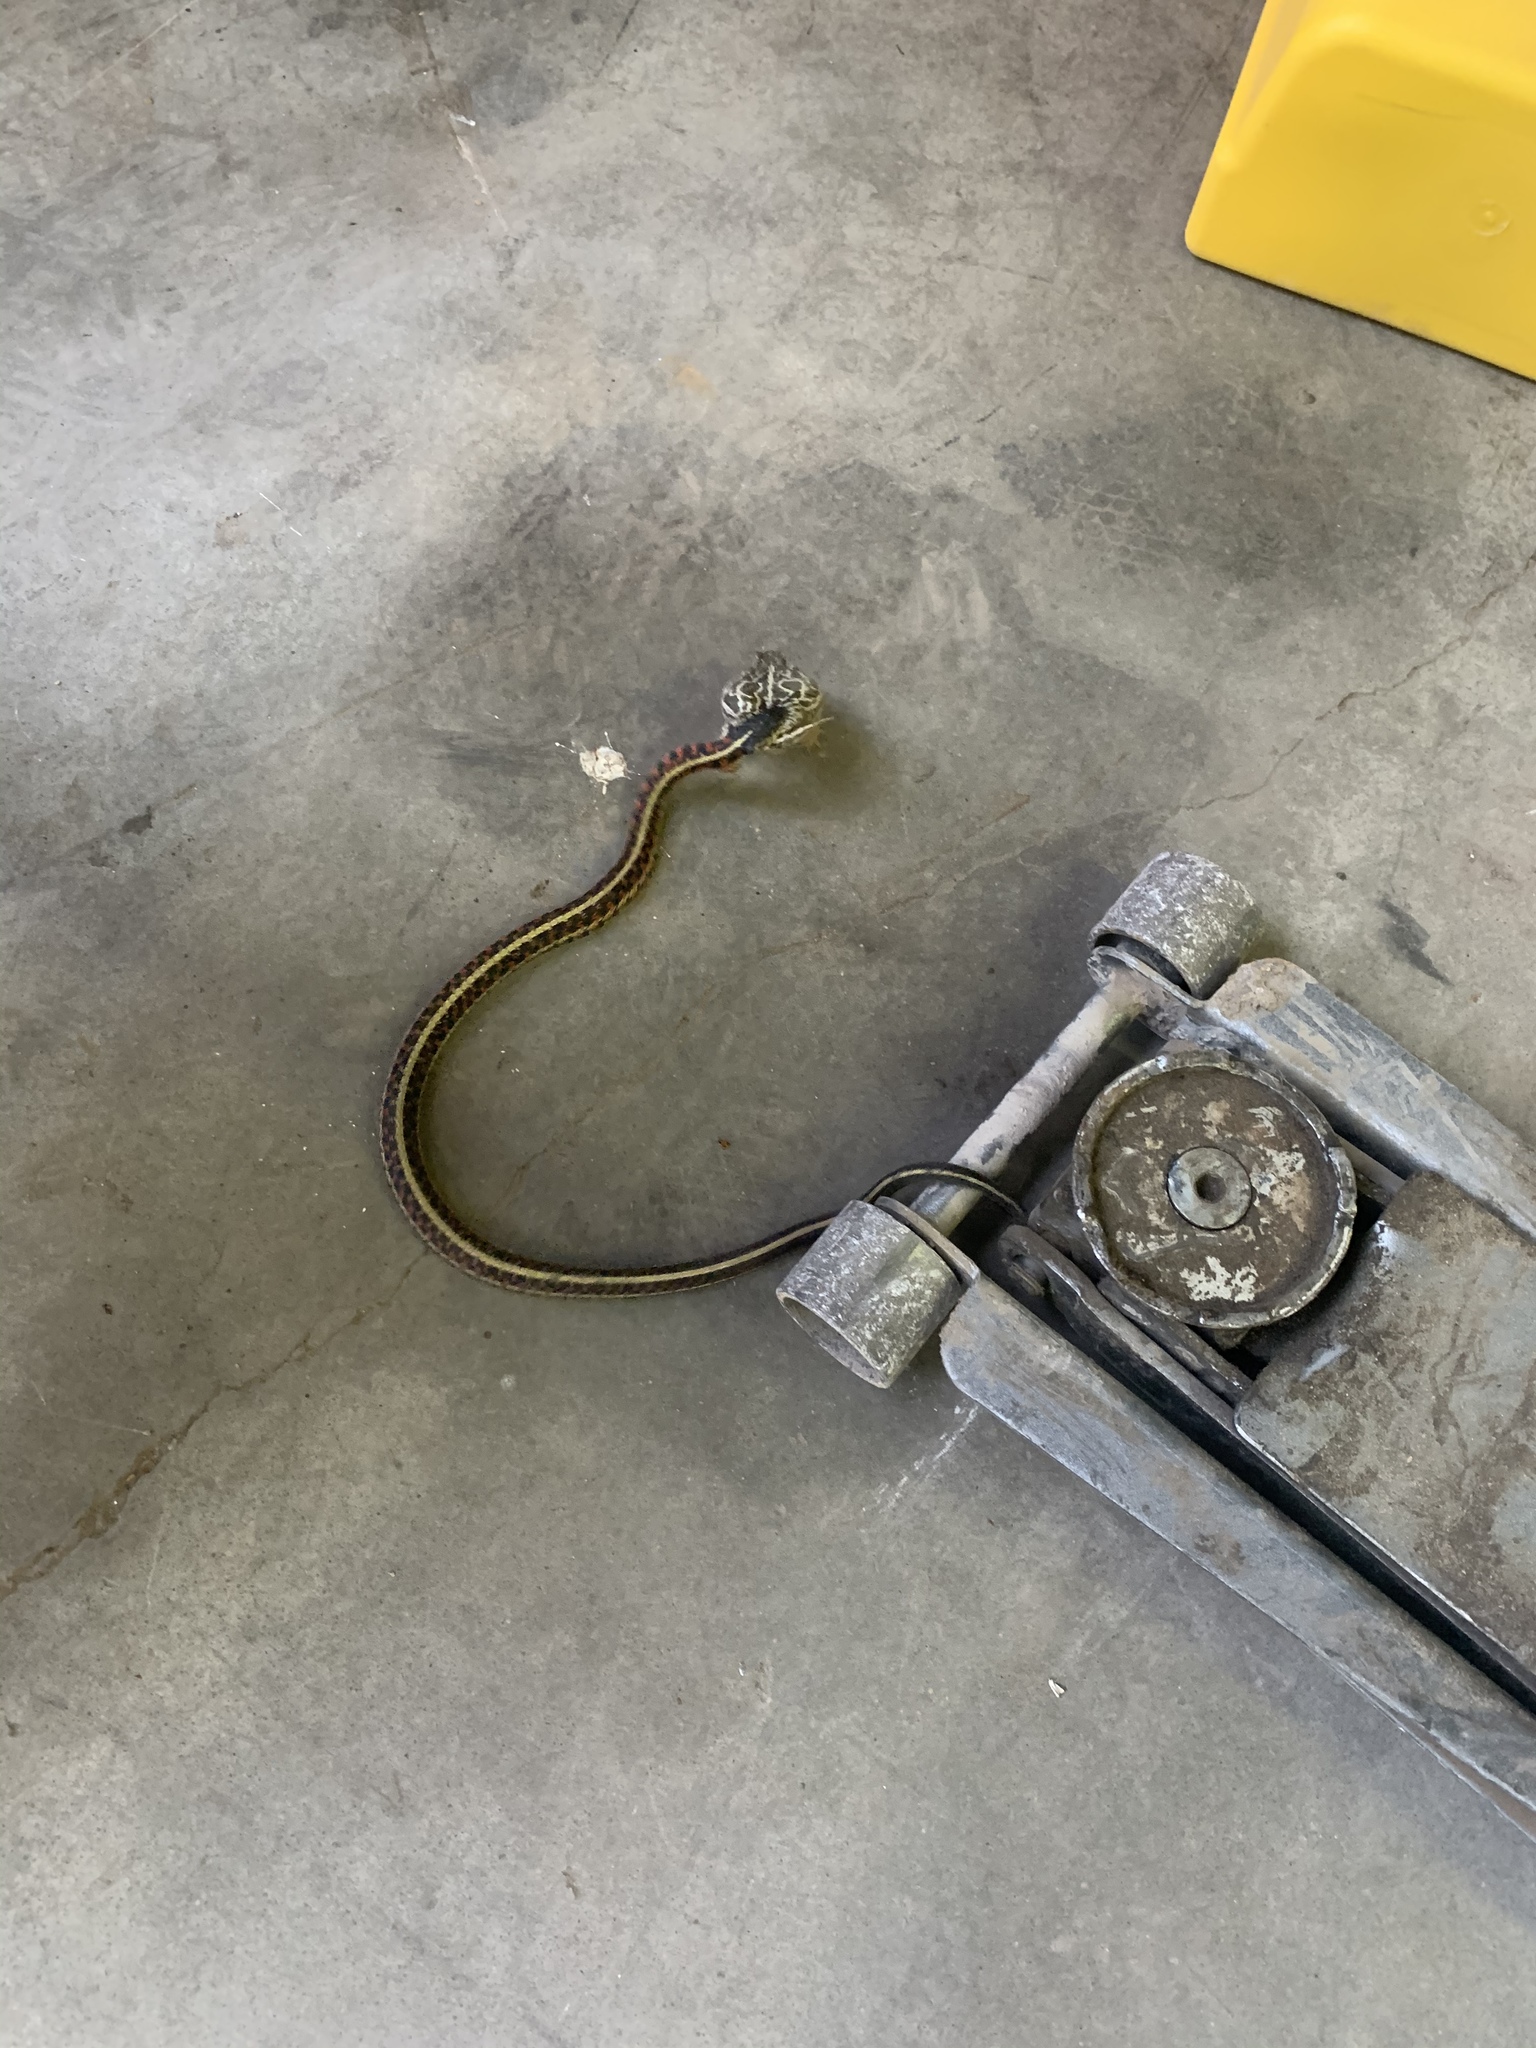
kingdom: Animalia
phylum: Chordata
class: Squamata
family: Colubridae
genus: Thamnophis
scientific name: Thamnophis sirtalis
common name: Common garter snake
